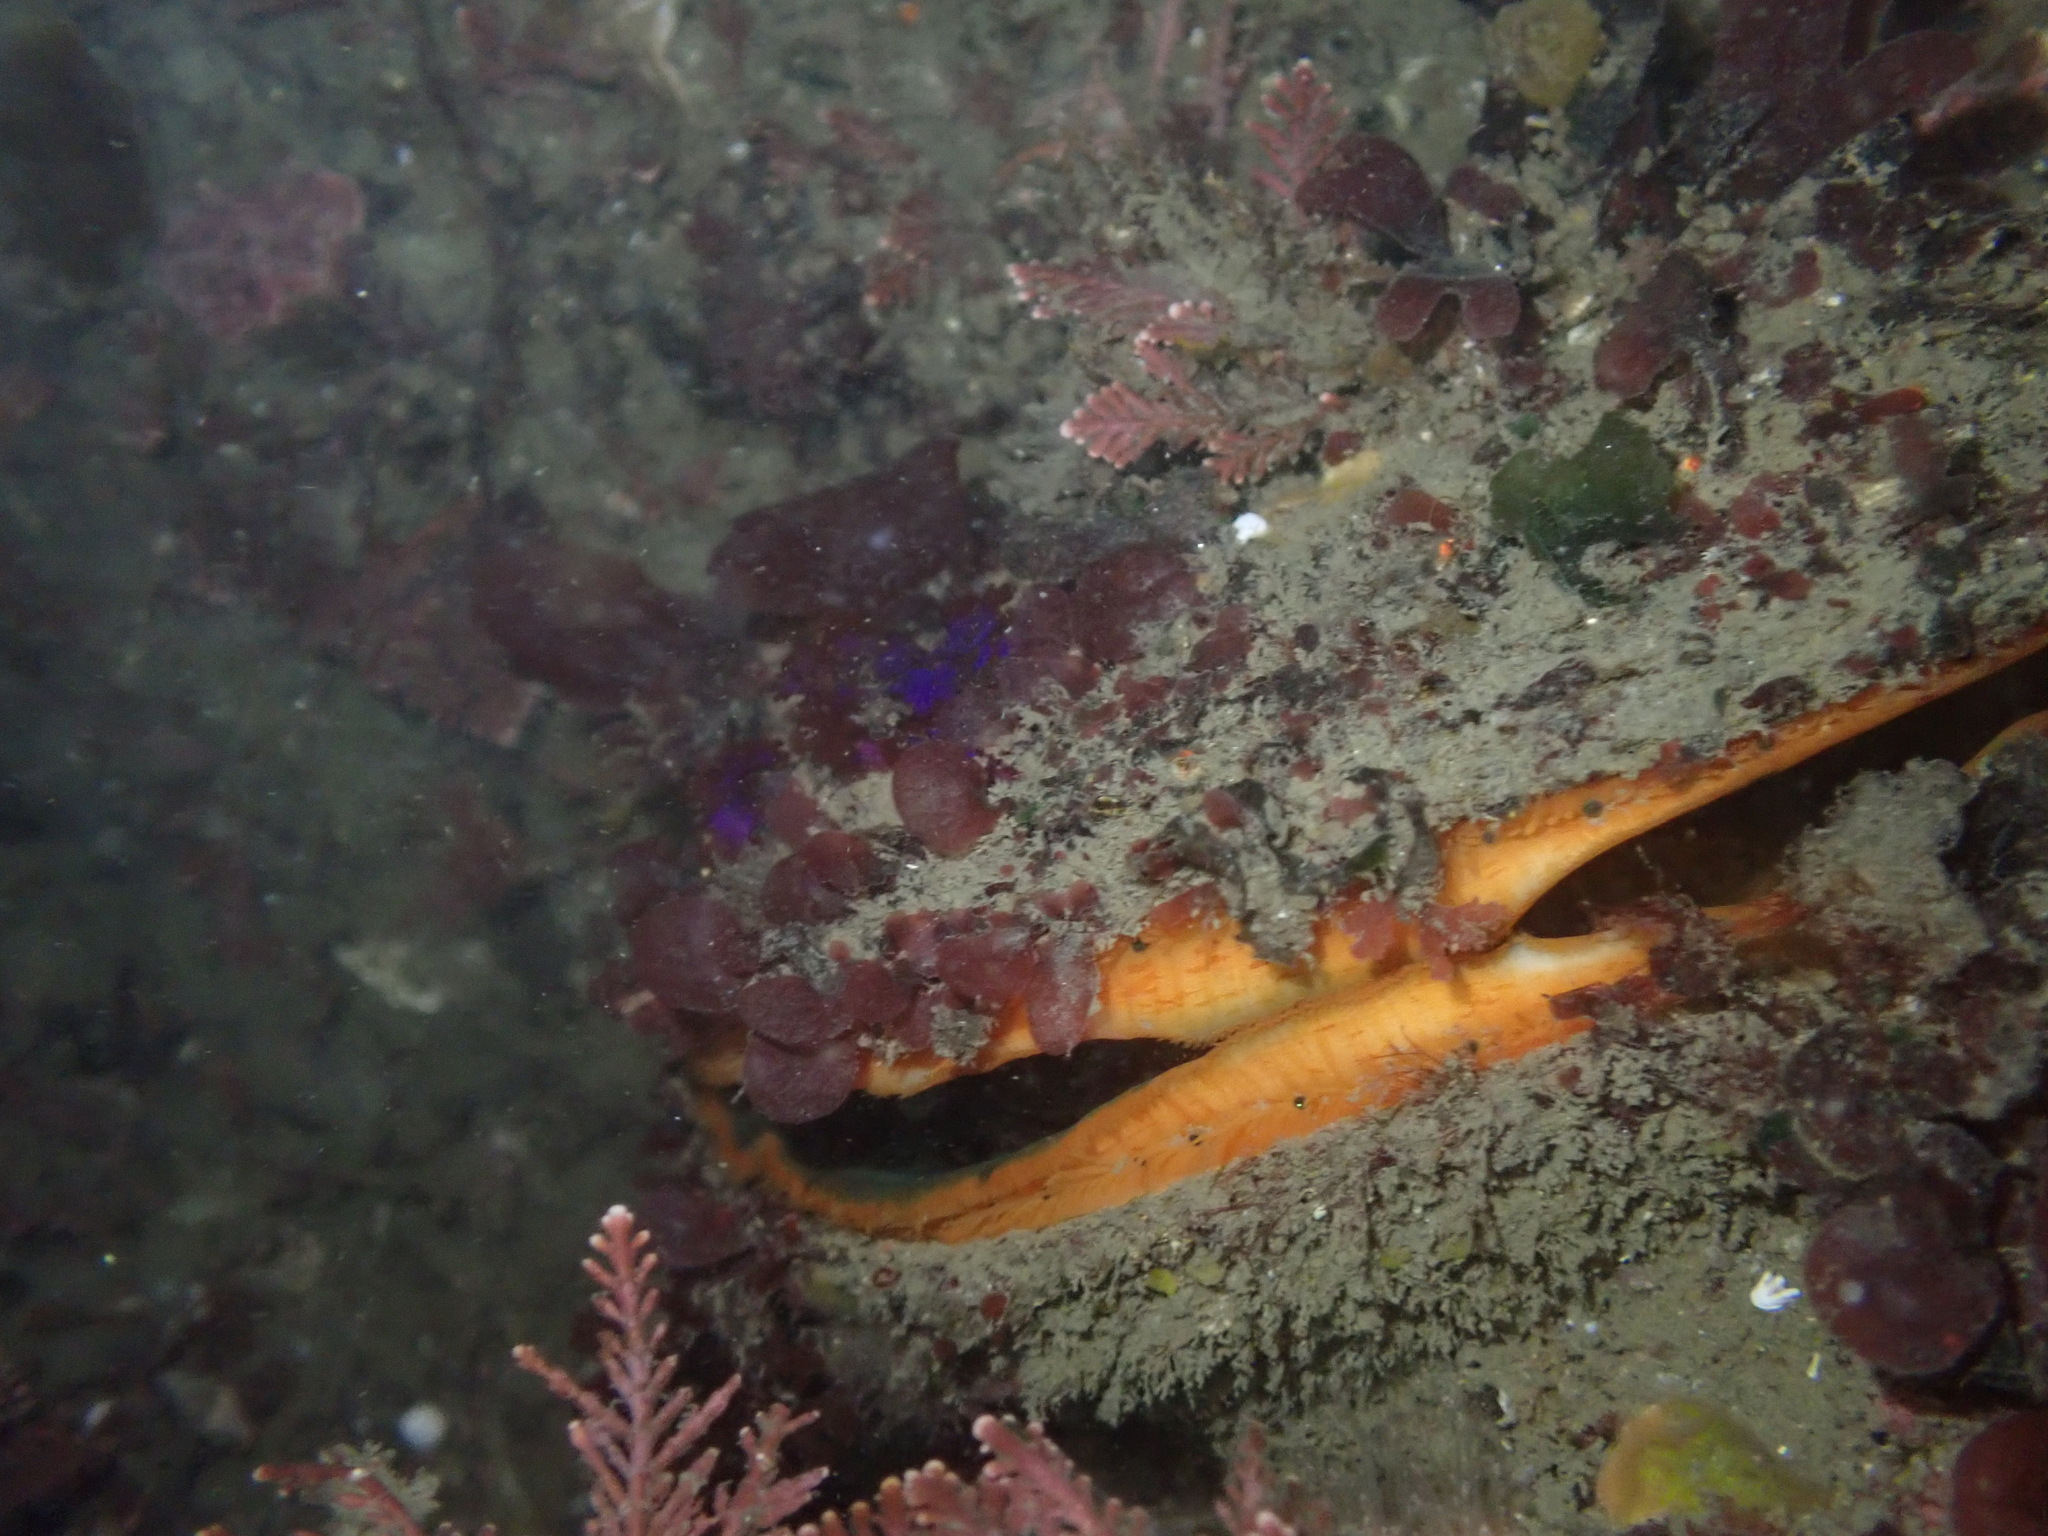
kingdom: Animalia
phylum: Mollusca
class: Bivalvia
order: Pectinida
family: Pectinidae
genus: Crassadoma
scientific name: Crassadoma gigantea
